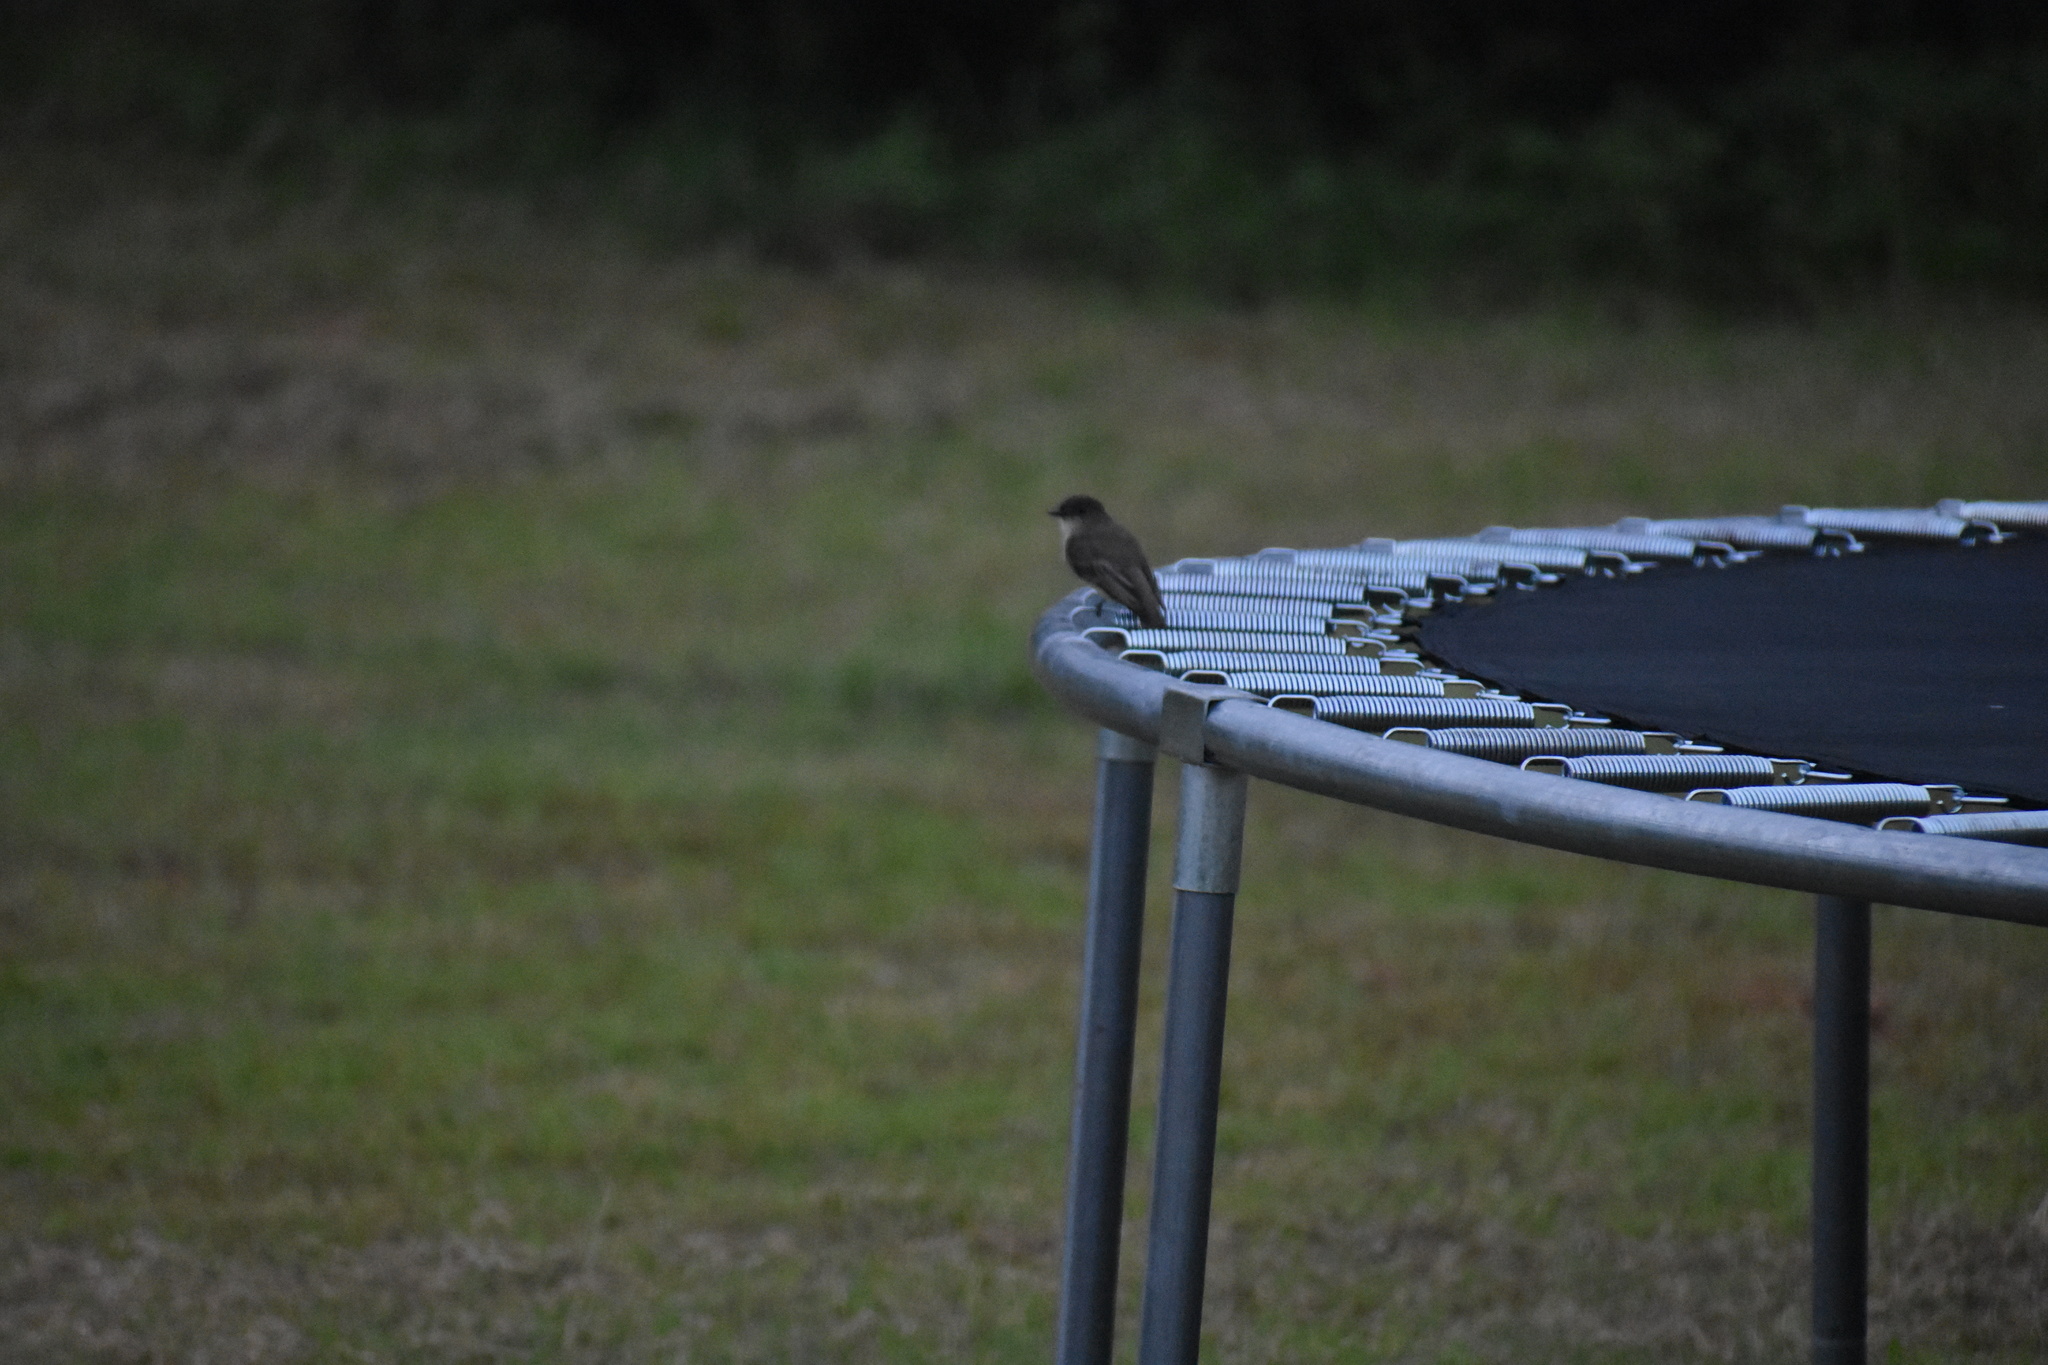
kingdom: Animalia
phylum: Chordata
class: Aves
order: Passeriformes
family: Tyrannidae
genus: Sayornis
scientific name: Sayornis phoebe
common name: Eastern phoebe
